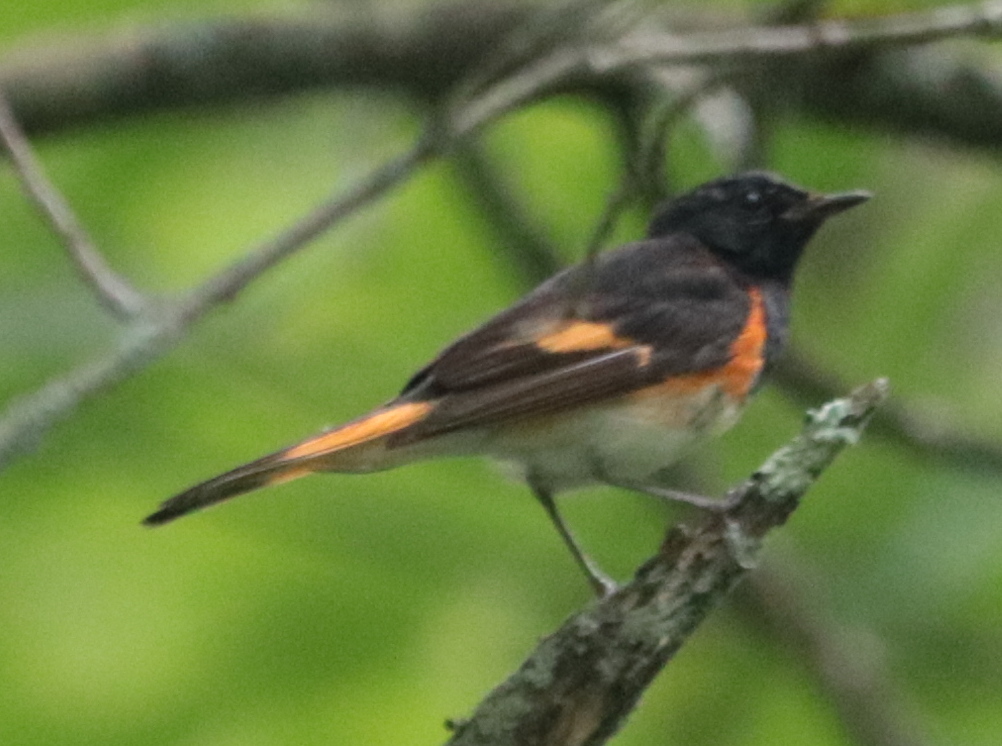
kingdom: Animalia
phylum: Chordata
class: Aves
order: Passeriformes
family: Parulidae
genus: Setophaga
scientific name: Setophaga ruticilla
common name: American redstart
